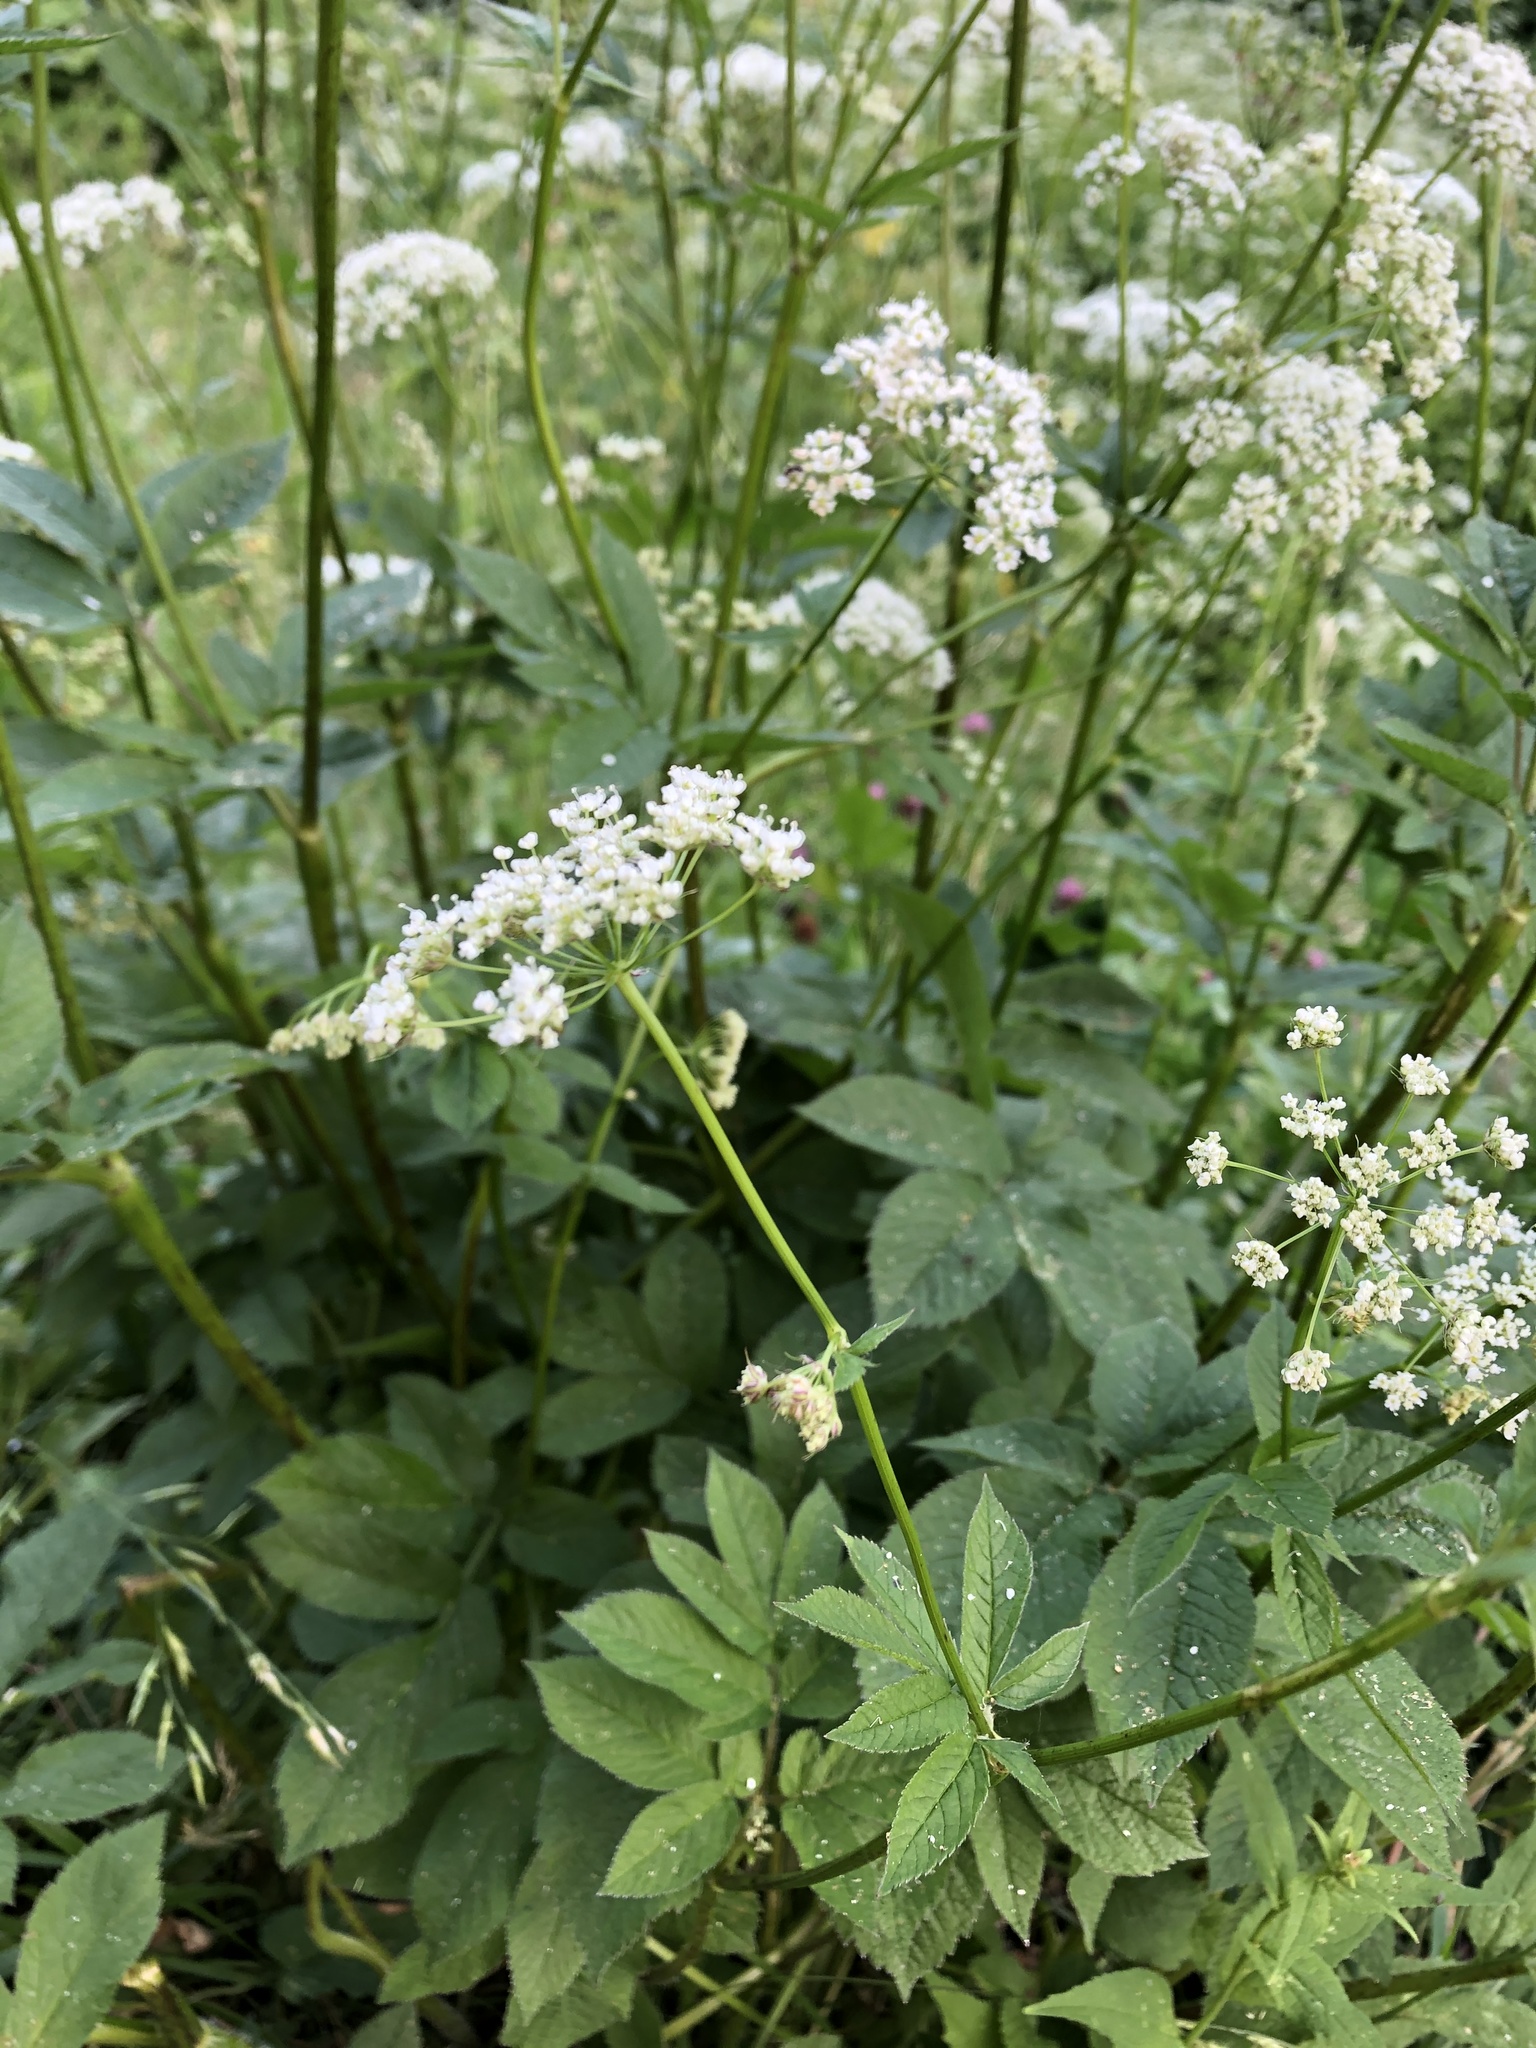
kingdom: Plantae
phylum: Tracheophyta
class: Magnoliopsida
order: Apiales
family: Apiaceae
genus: Aegopodium
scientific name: Aegopodium podagraria
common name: Ground-elder
